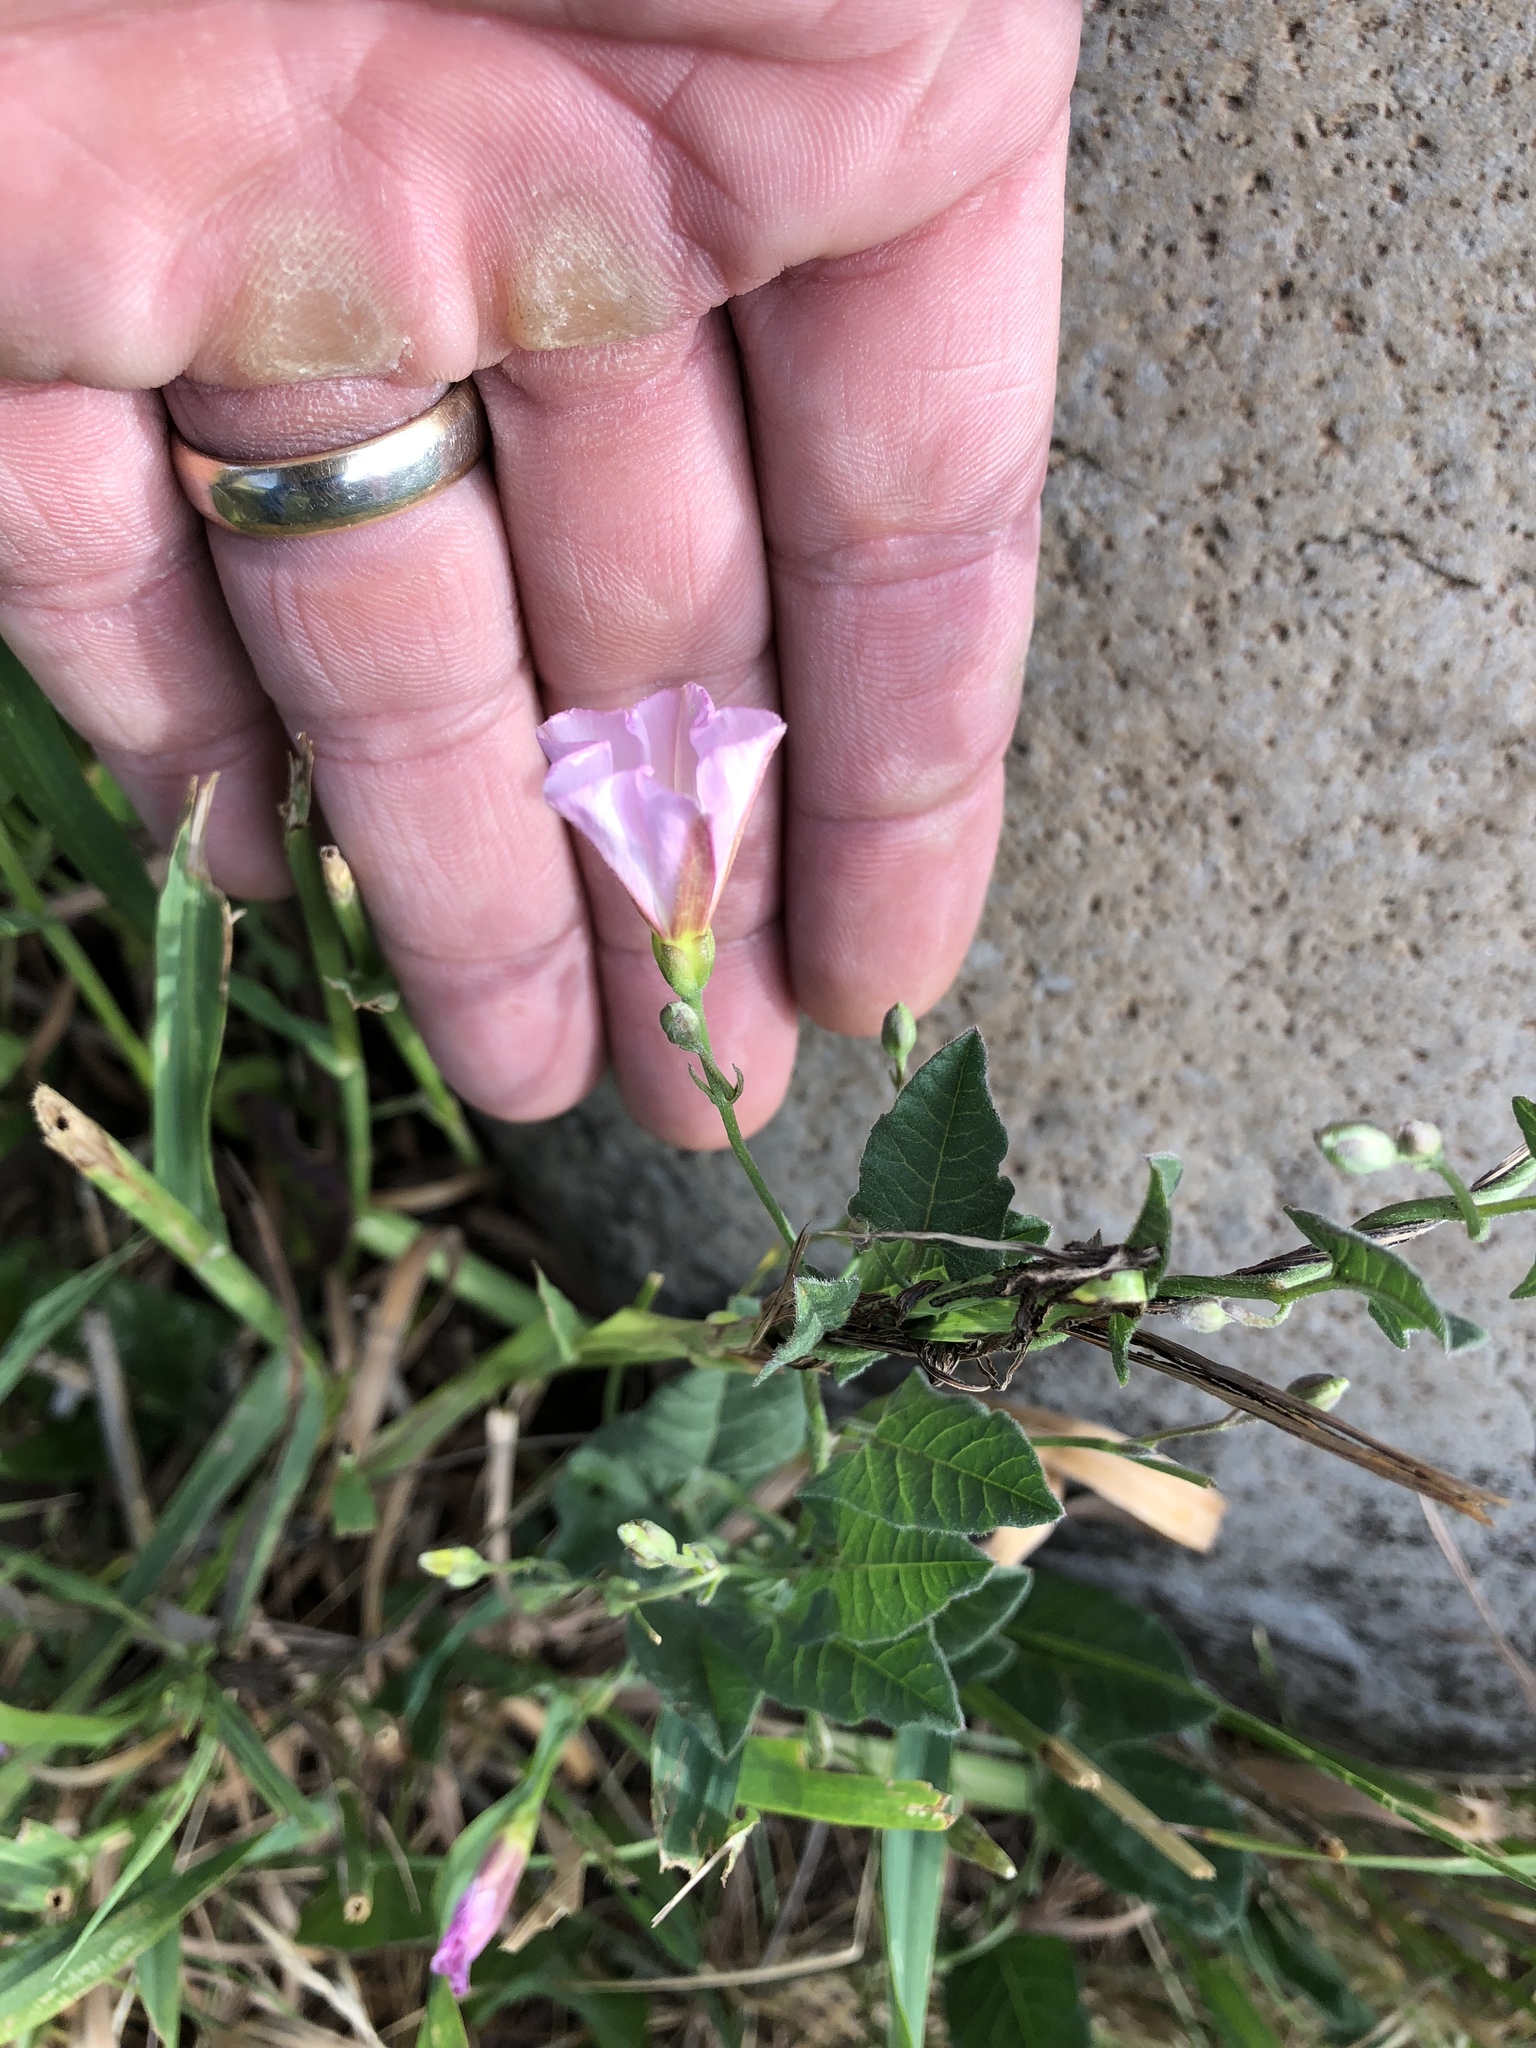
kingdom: Plantae
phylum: Tracheophyta
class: Magnoliopsida
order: Solanales
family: Convolvulaceae
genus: Convolvulus
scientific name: Convolvulus arvensis
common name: Field bindweed
